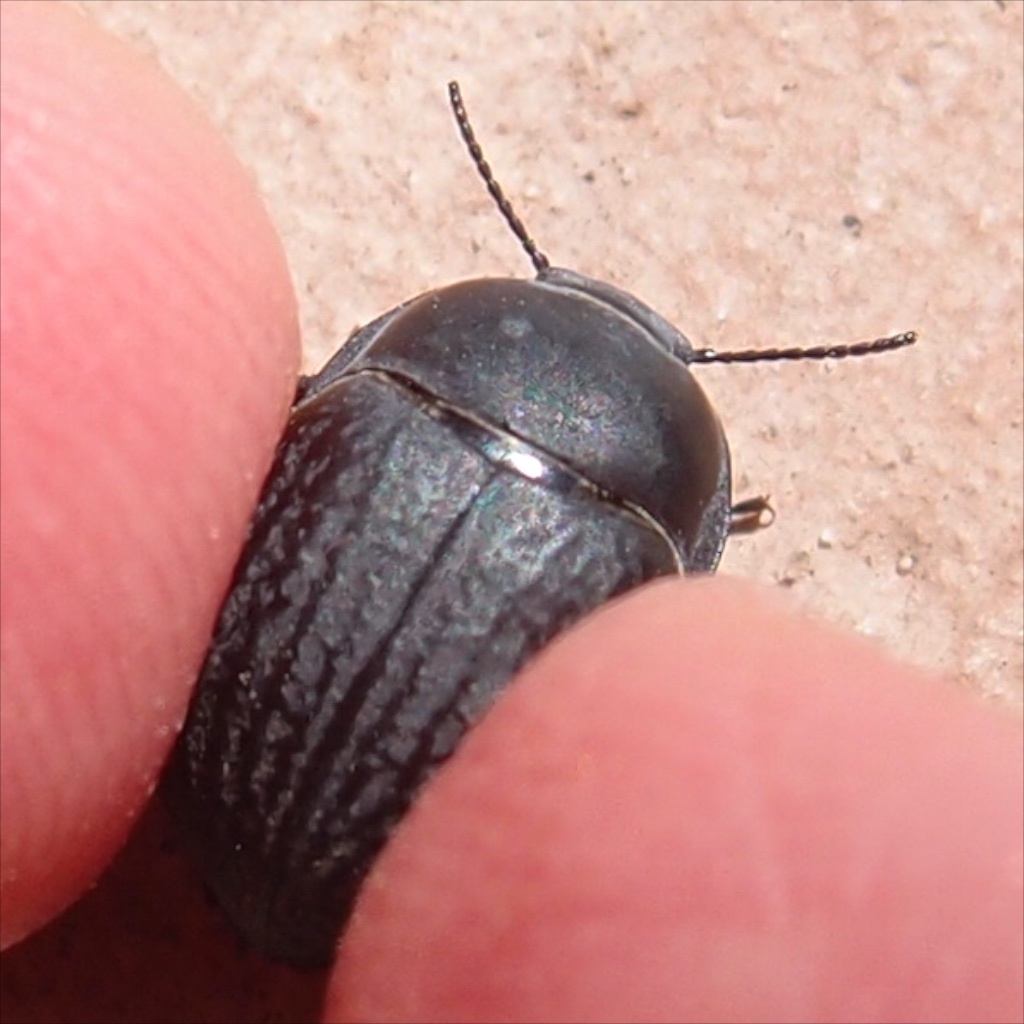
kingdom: Animalia
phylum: Arthropoda
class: Insecta
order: Coleoptera
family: Tenebrionidae
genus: Eusattus
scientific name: Eusattus reticulatus
